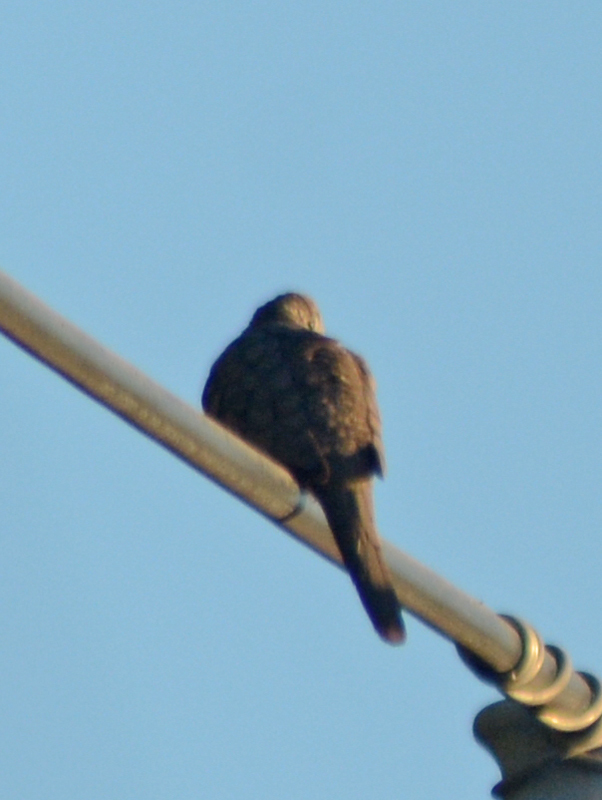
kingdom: Animalia
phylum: Chordata
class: Aves
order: Columbiformes
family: Columbidae
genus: Columbina
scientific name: Columbina inca
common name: Inca dove
